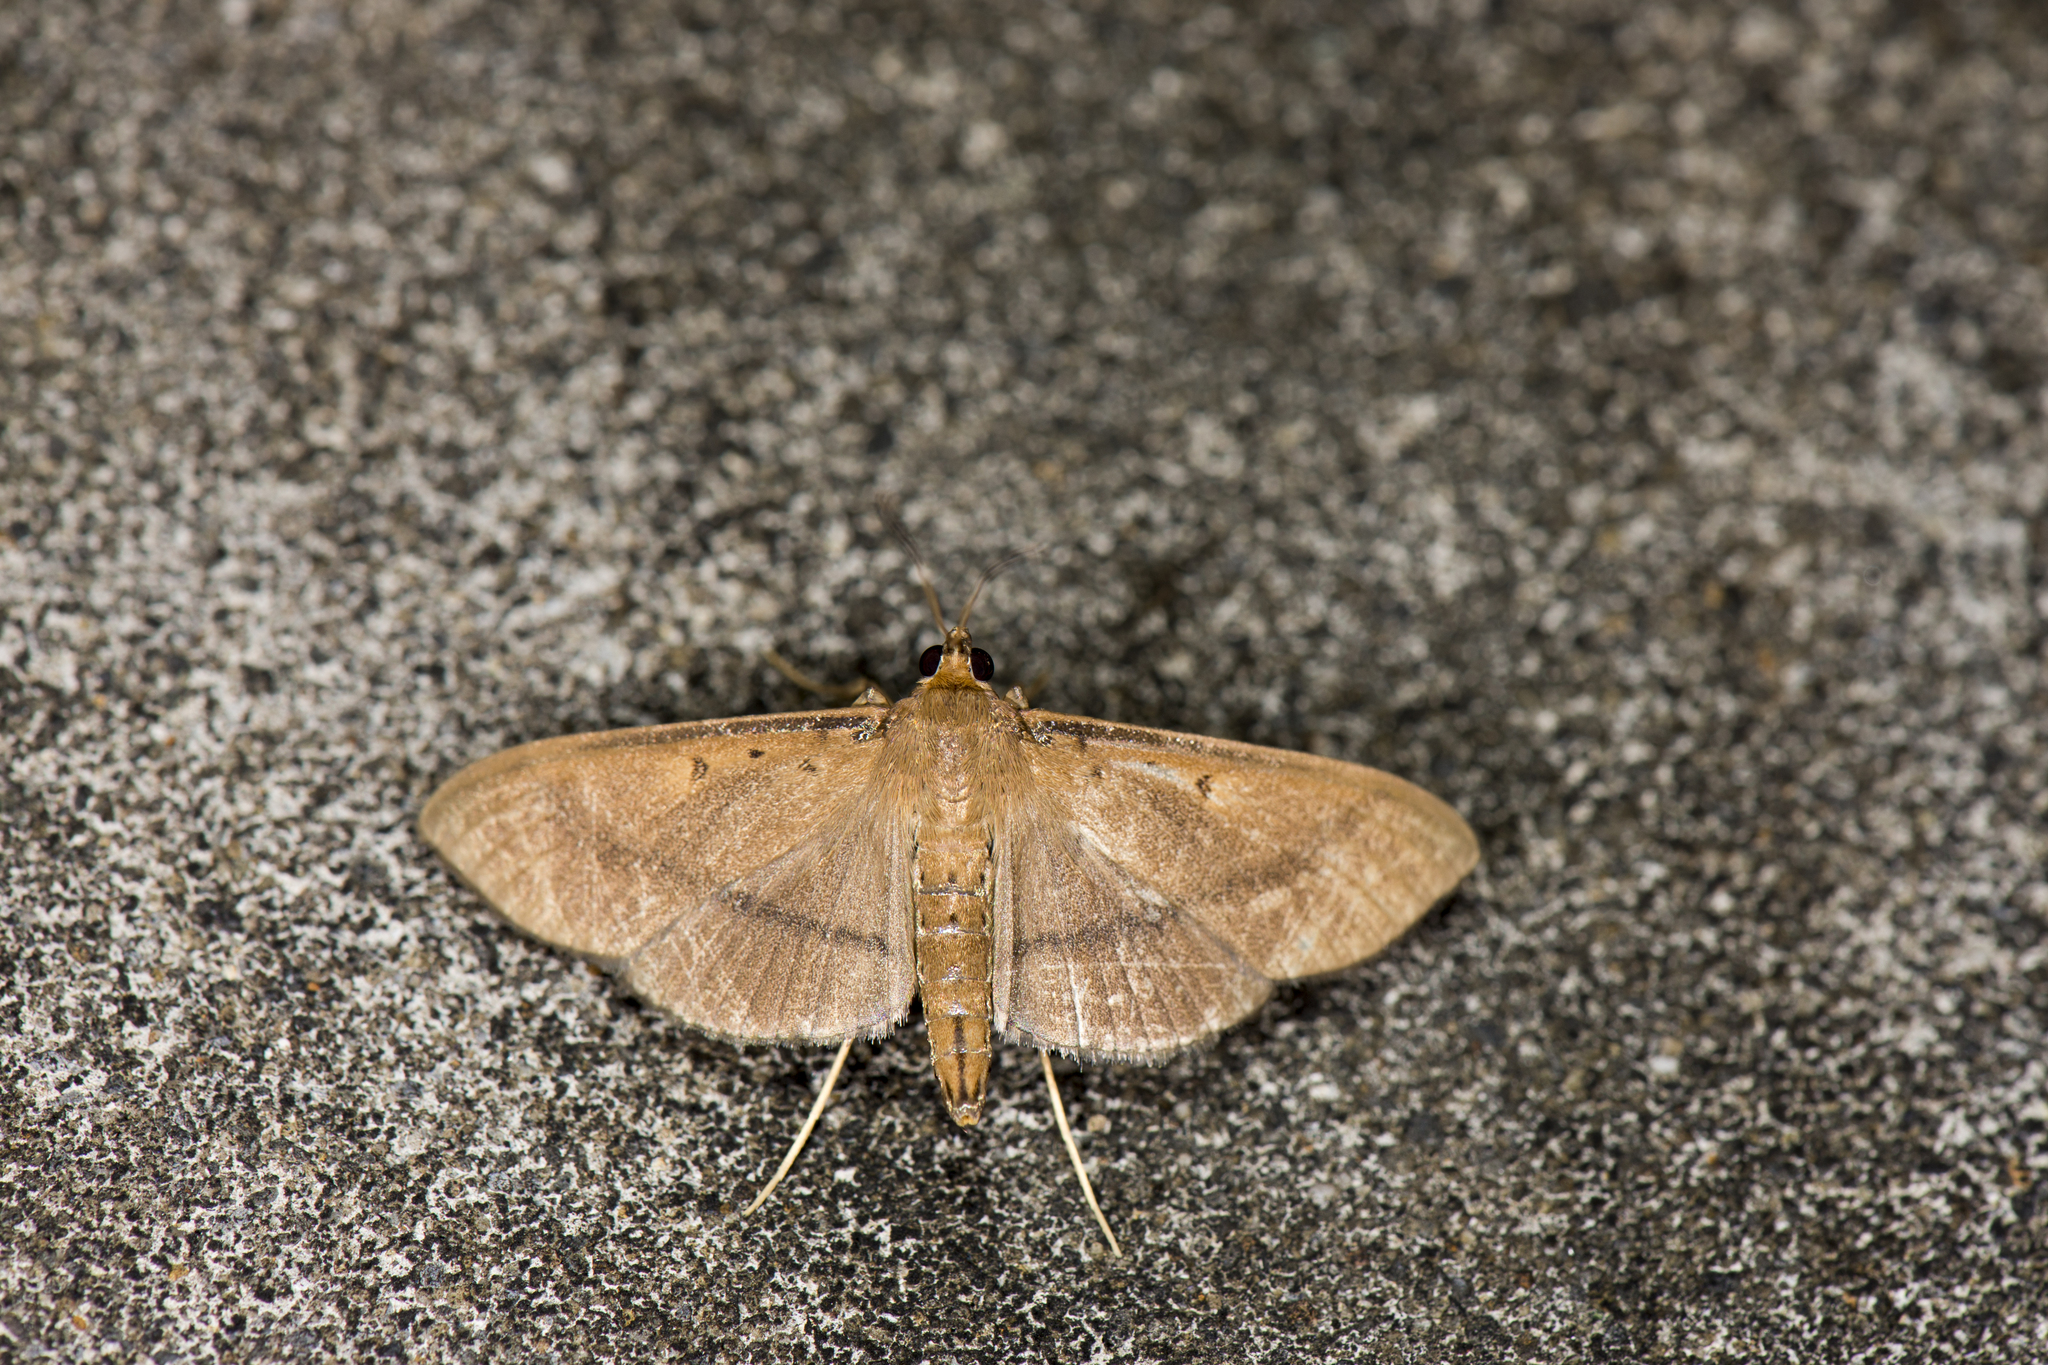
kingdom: Animalia
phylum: Arthropoda
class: Insecta
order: Lepidoptera
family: Crambidae
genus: Filodes
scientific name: Filodes fulvidorsalis
